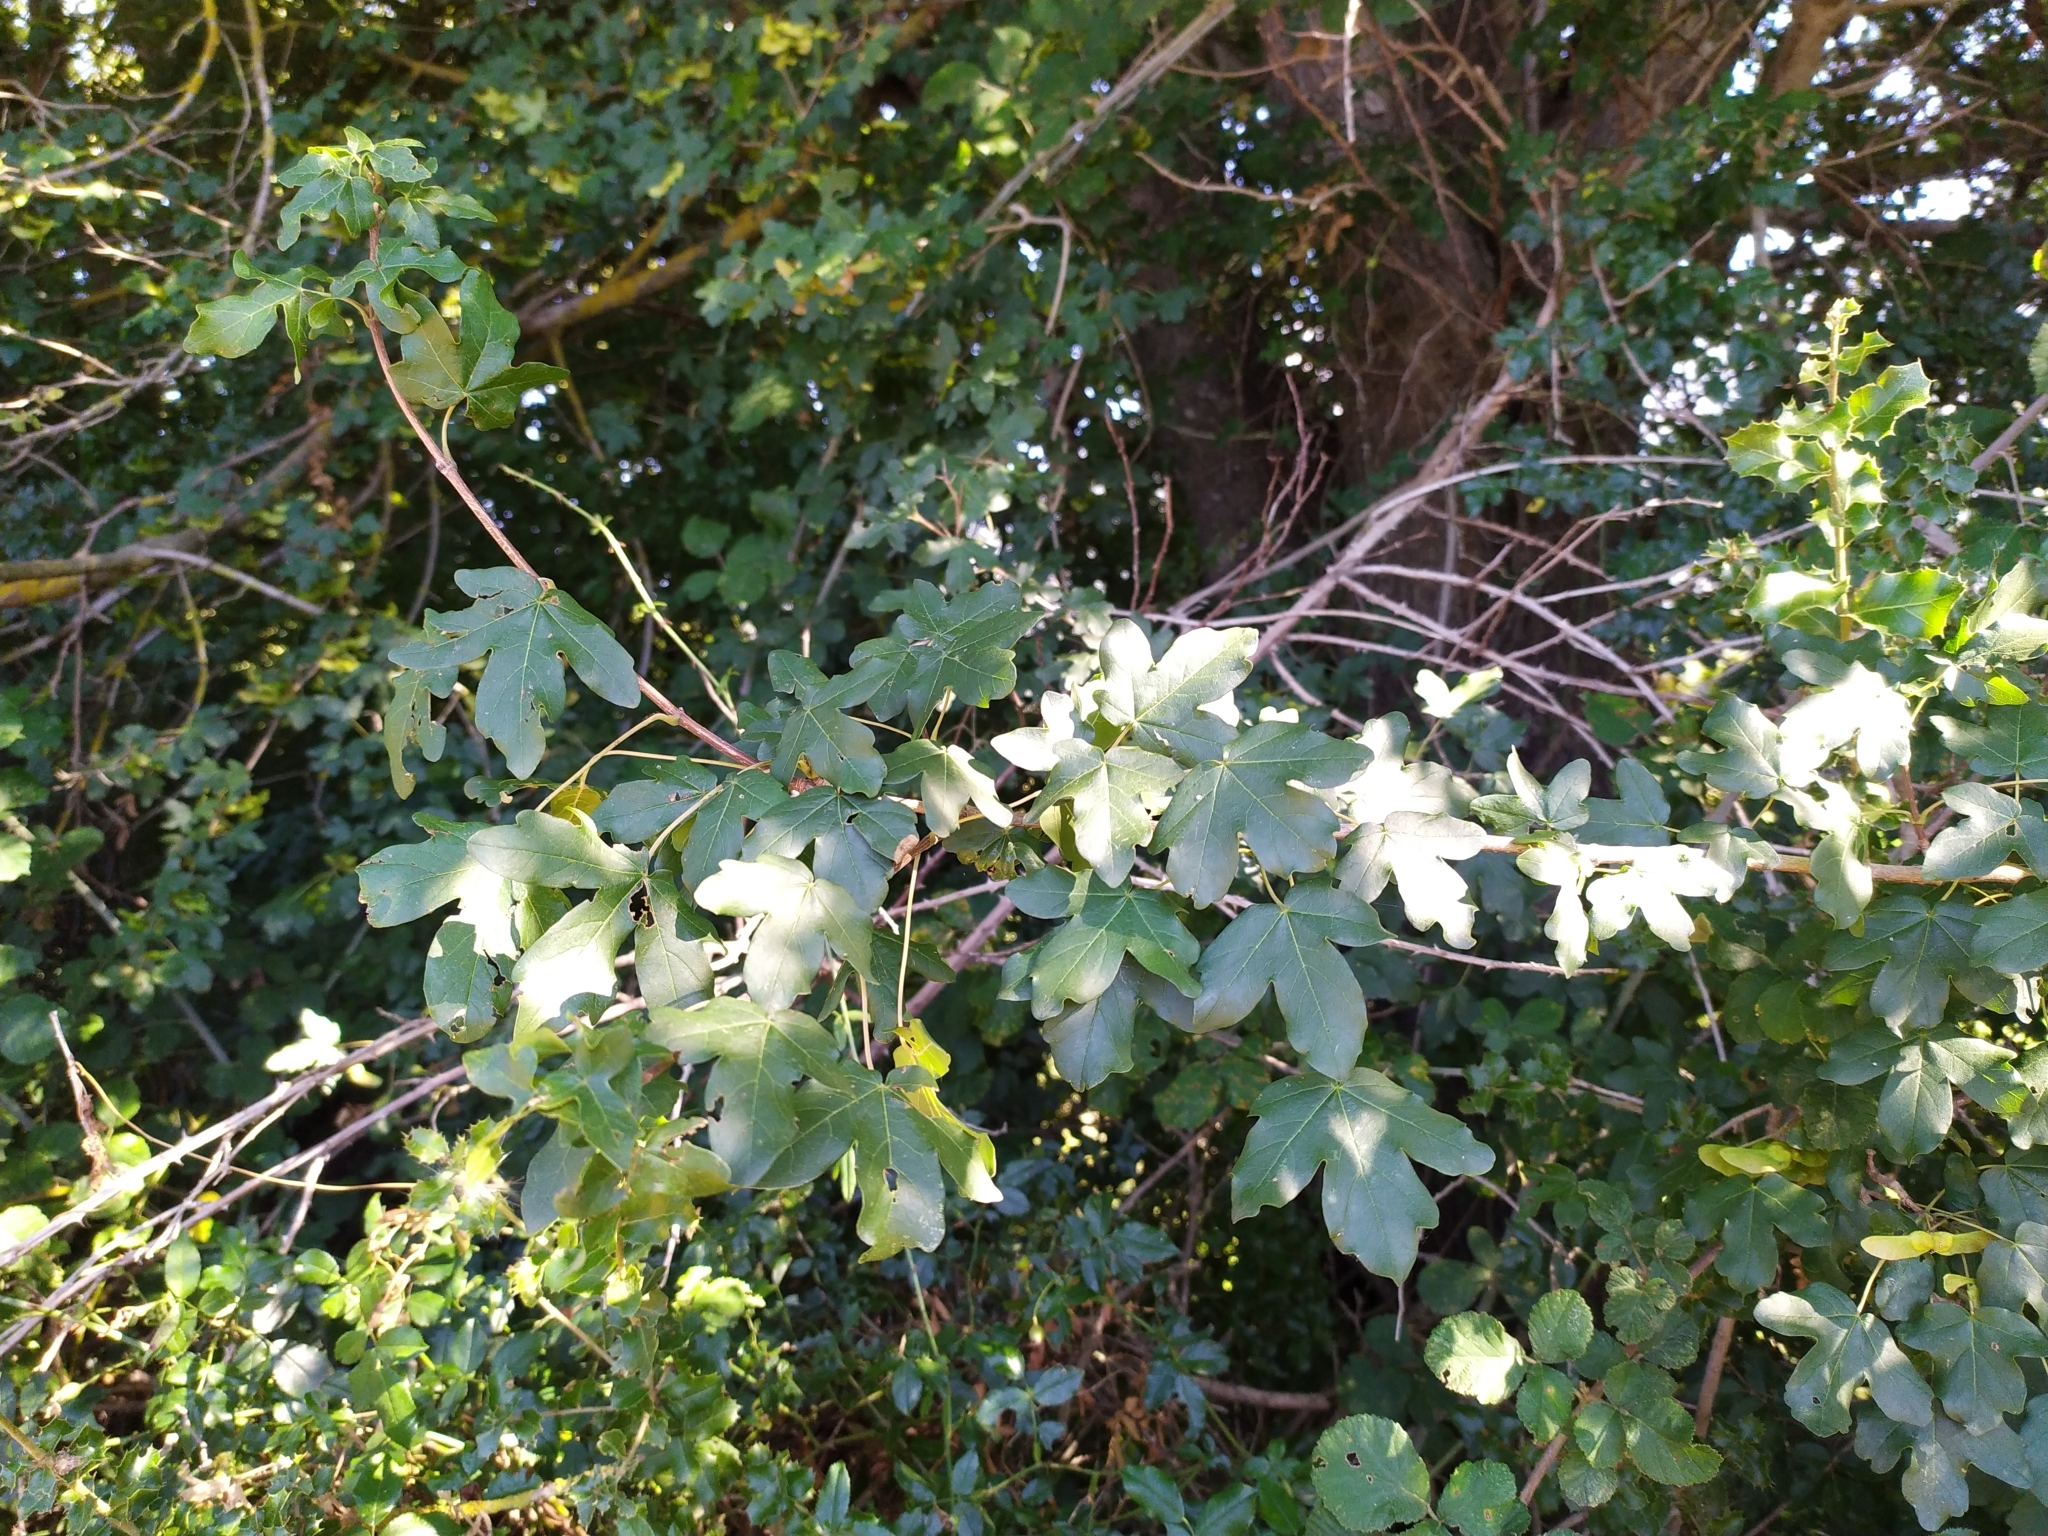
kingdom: Plantae
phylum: Tracheophyta
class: Magnoliopsida
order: Sapindales
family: Sapindaceae
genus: Acer
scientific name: Acer monspessulanum
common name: Montpellier maple
